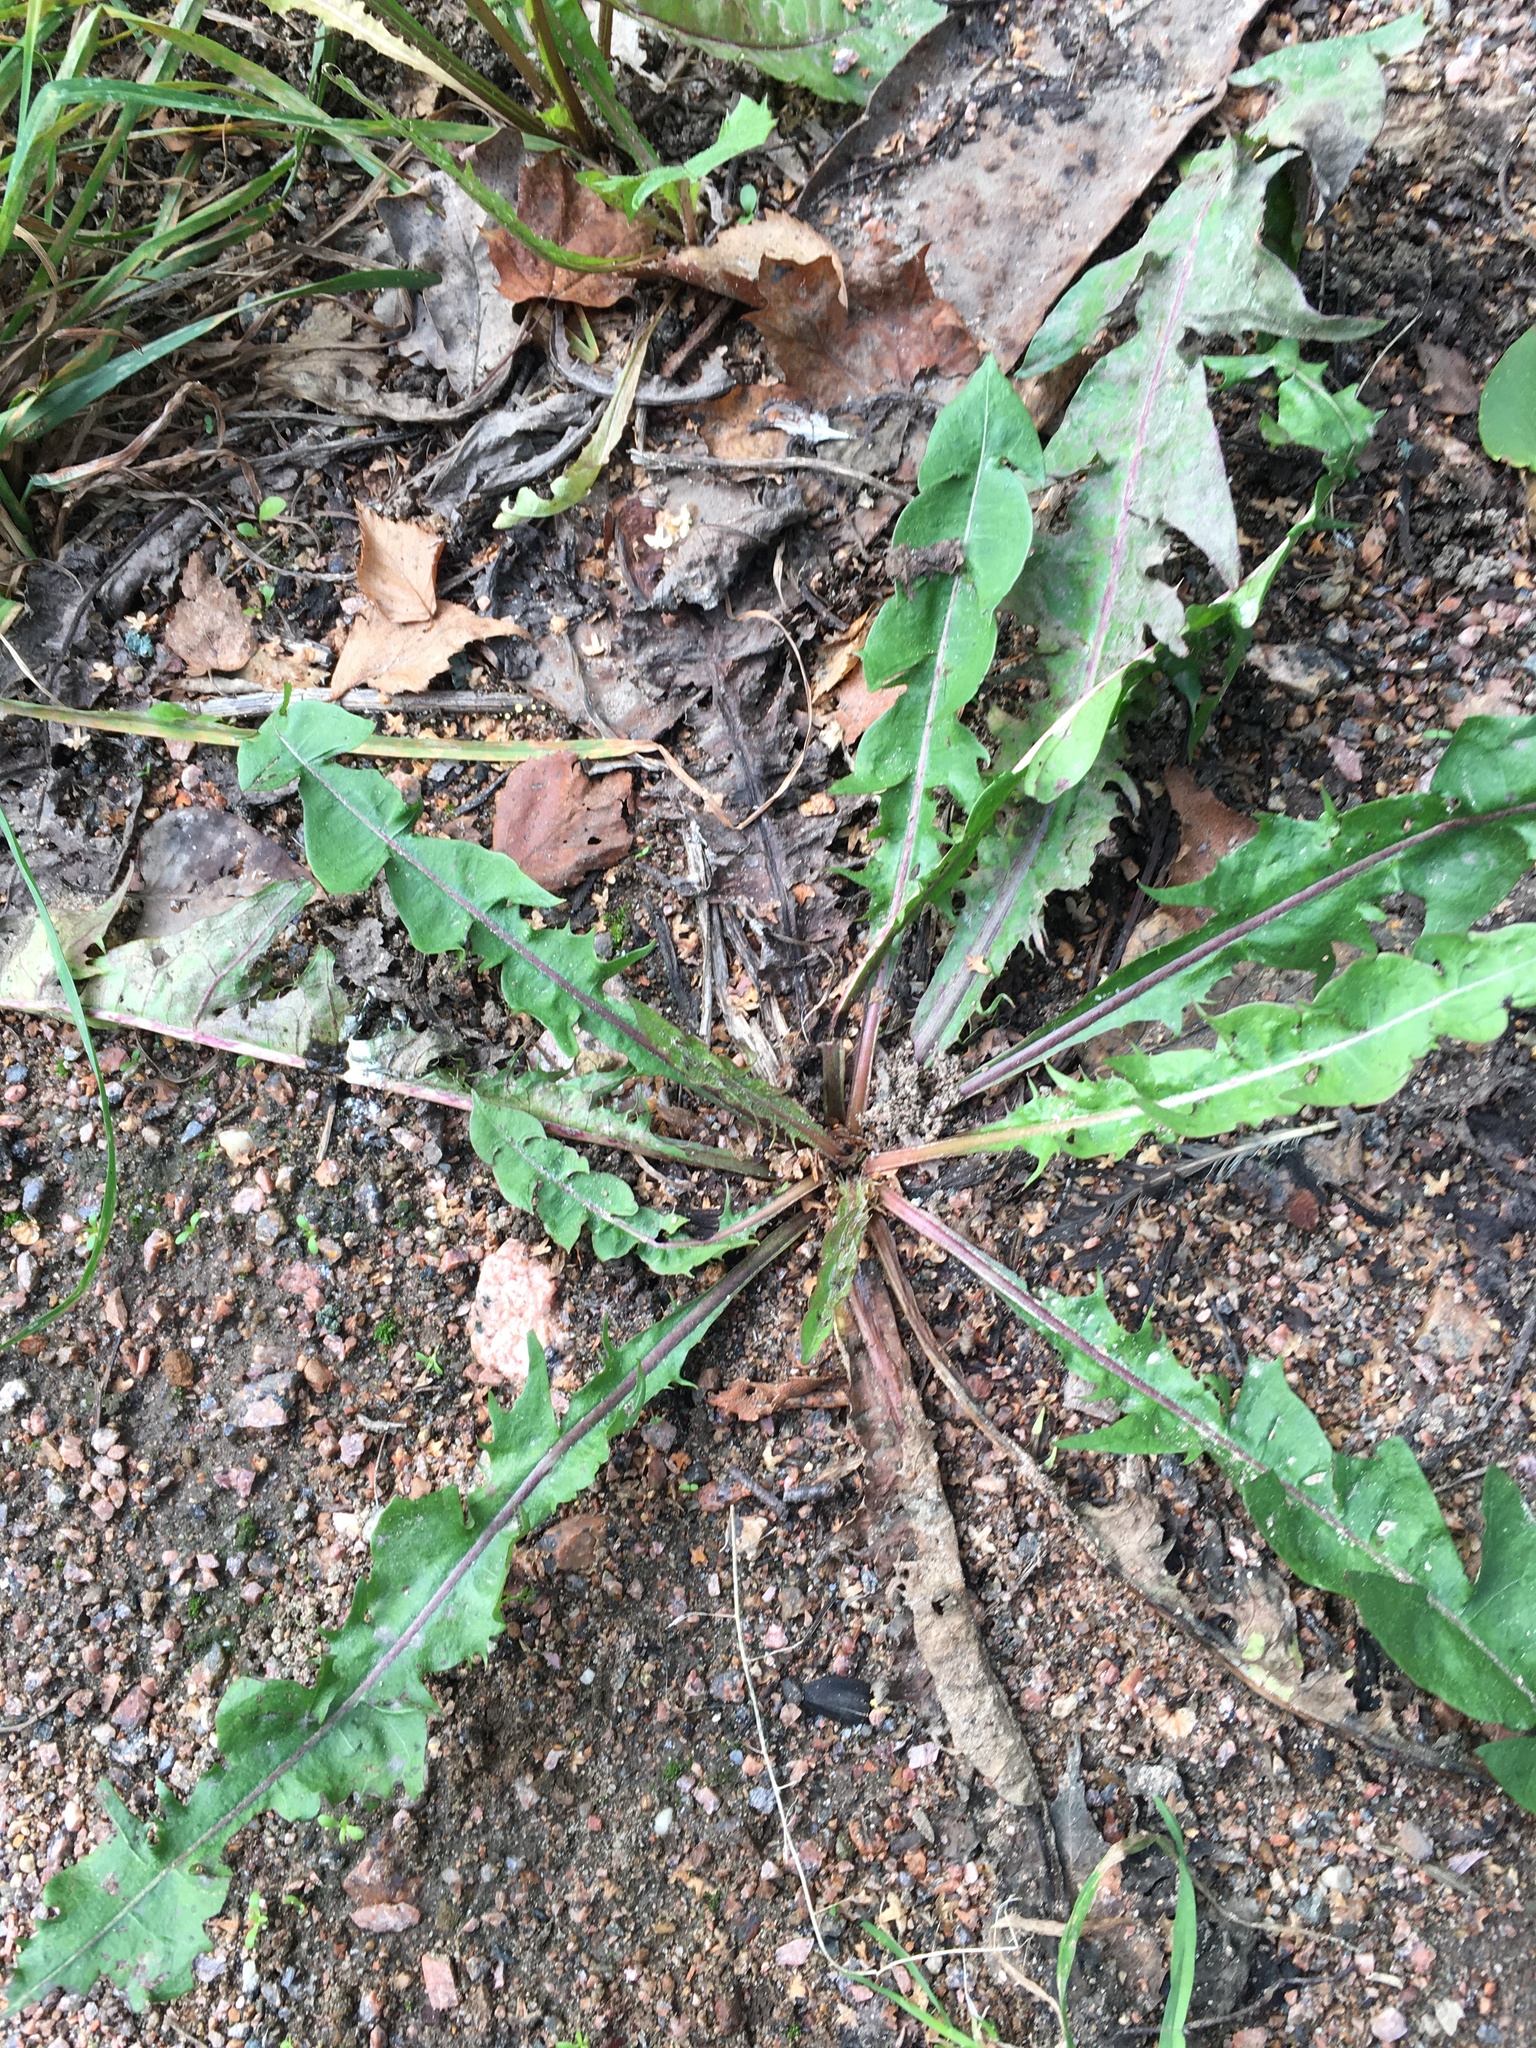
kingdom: Plantae
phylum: Tracheophyta
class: Magnoliopsida
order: Asterales
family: Asteraceae
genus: Taraxacum
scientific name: Taraxacum officinale
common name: Common dandelion
